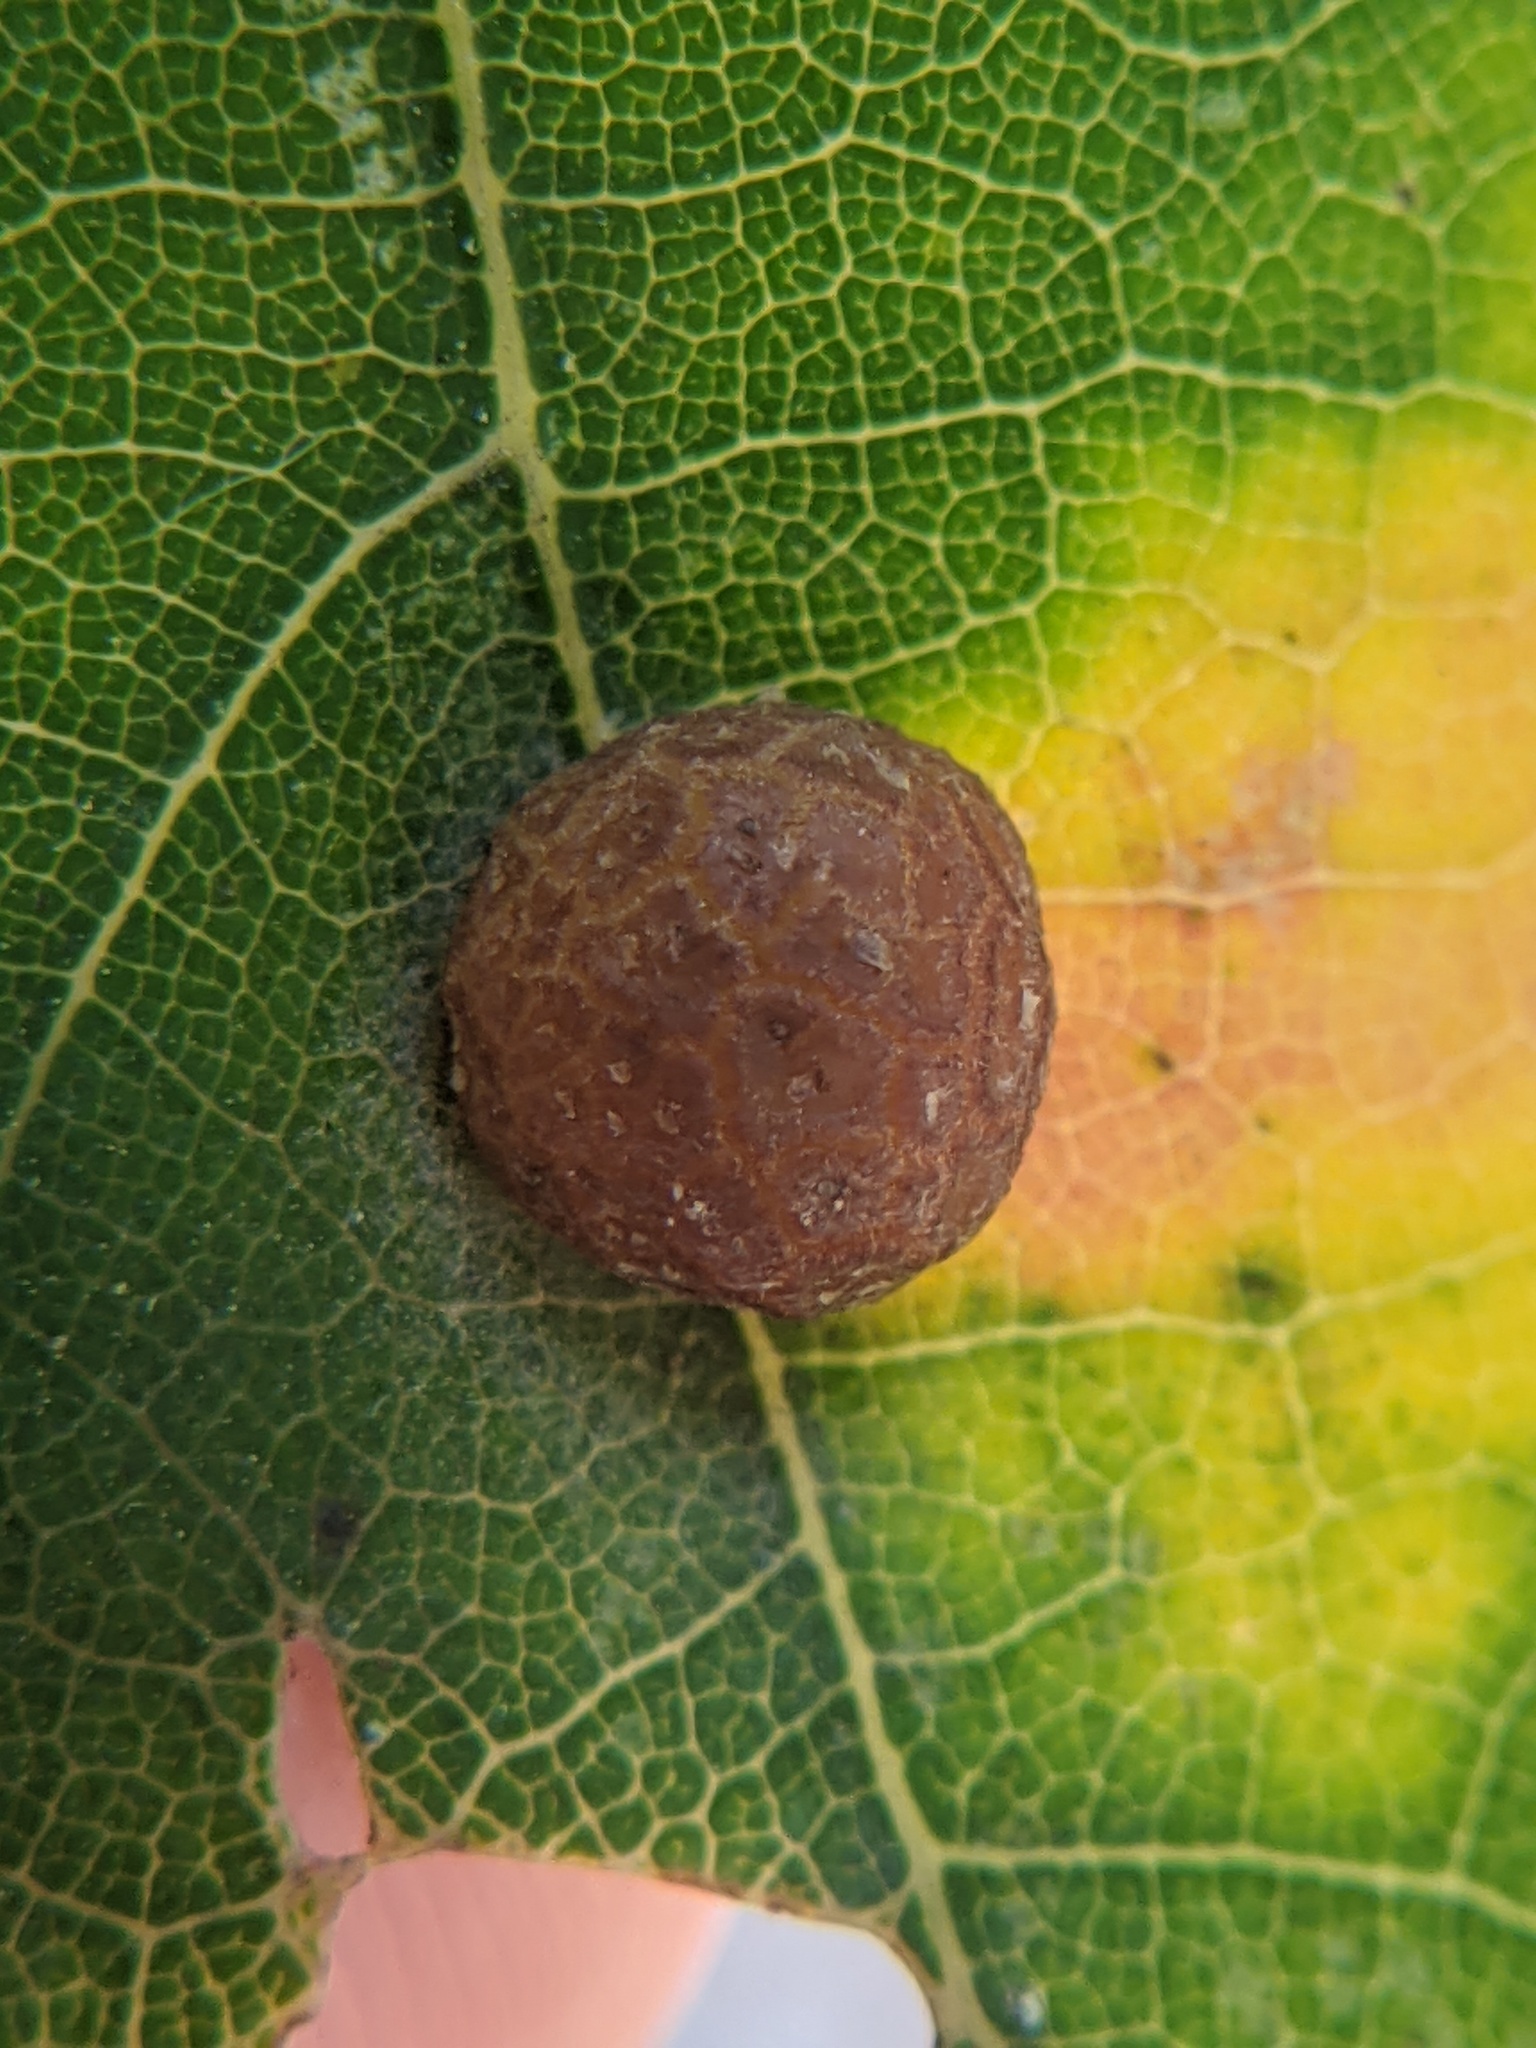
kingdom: Animalia
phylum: Arthropoda
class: Insecta
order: Diptera
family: Cecidomyiidae
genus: Polystepha
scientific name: Polystepha pilulae
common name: Oak leaf gall midge
